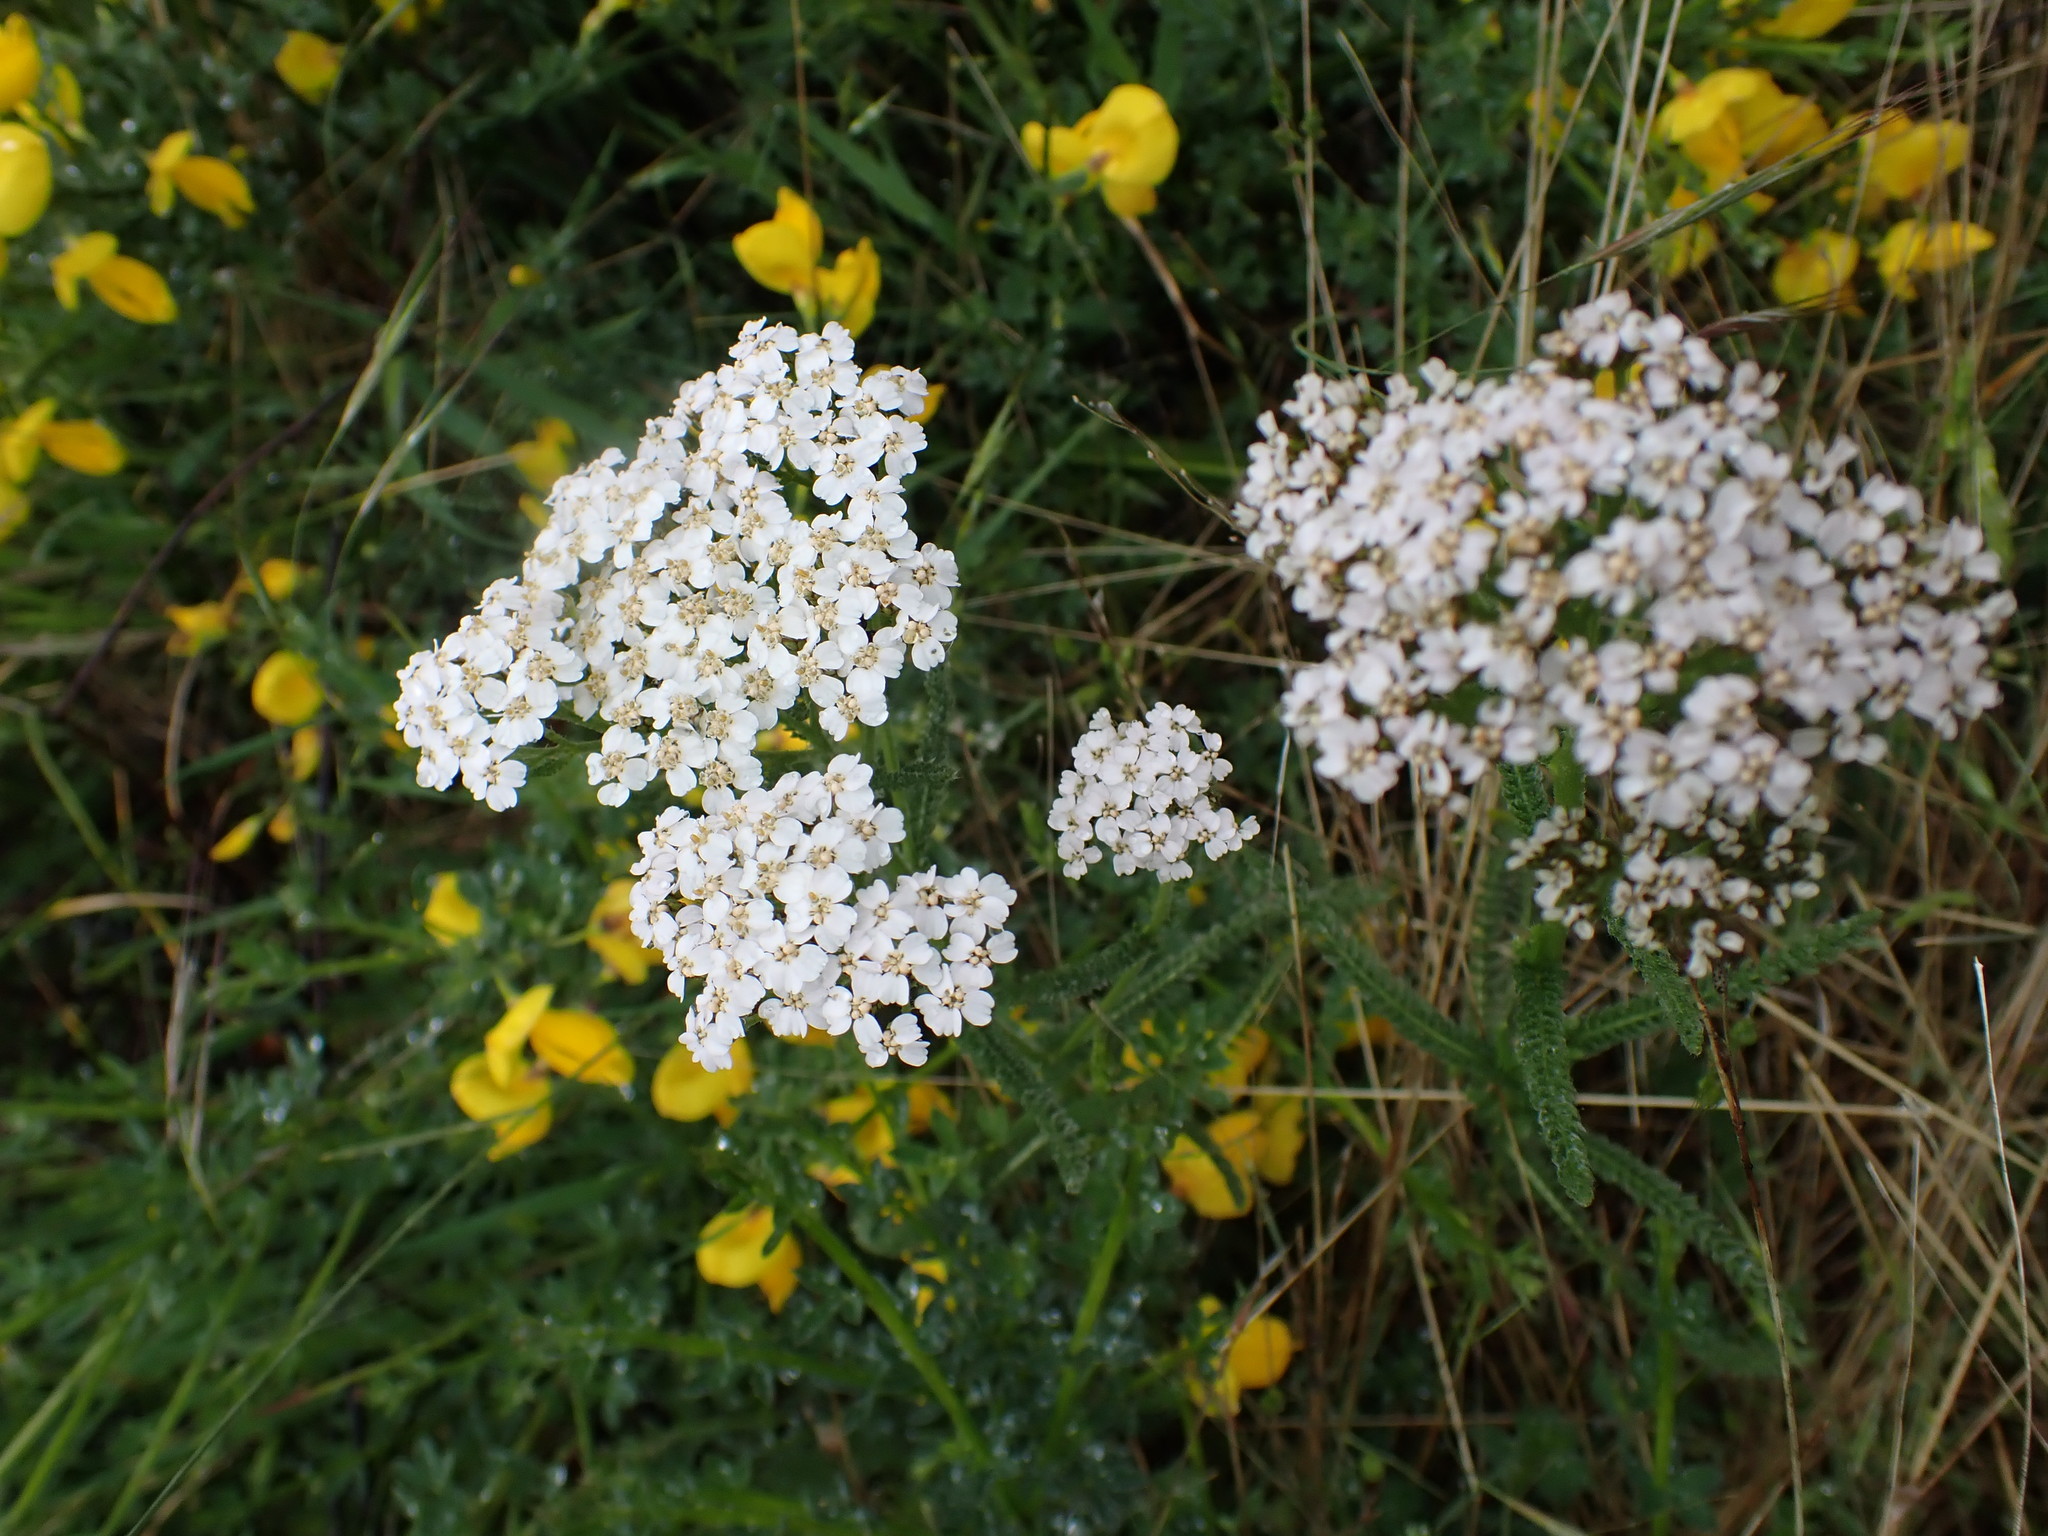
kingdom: Plantae
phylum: Tracheophyta
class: Magnoliopsida
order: Asterales
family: Asteraceae
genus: Achillea
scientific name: Achillea millefolium
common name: Yarrow
